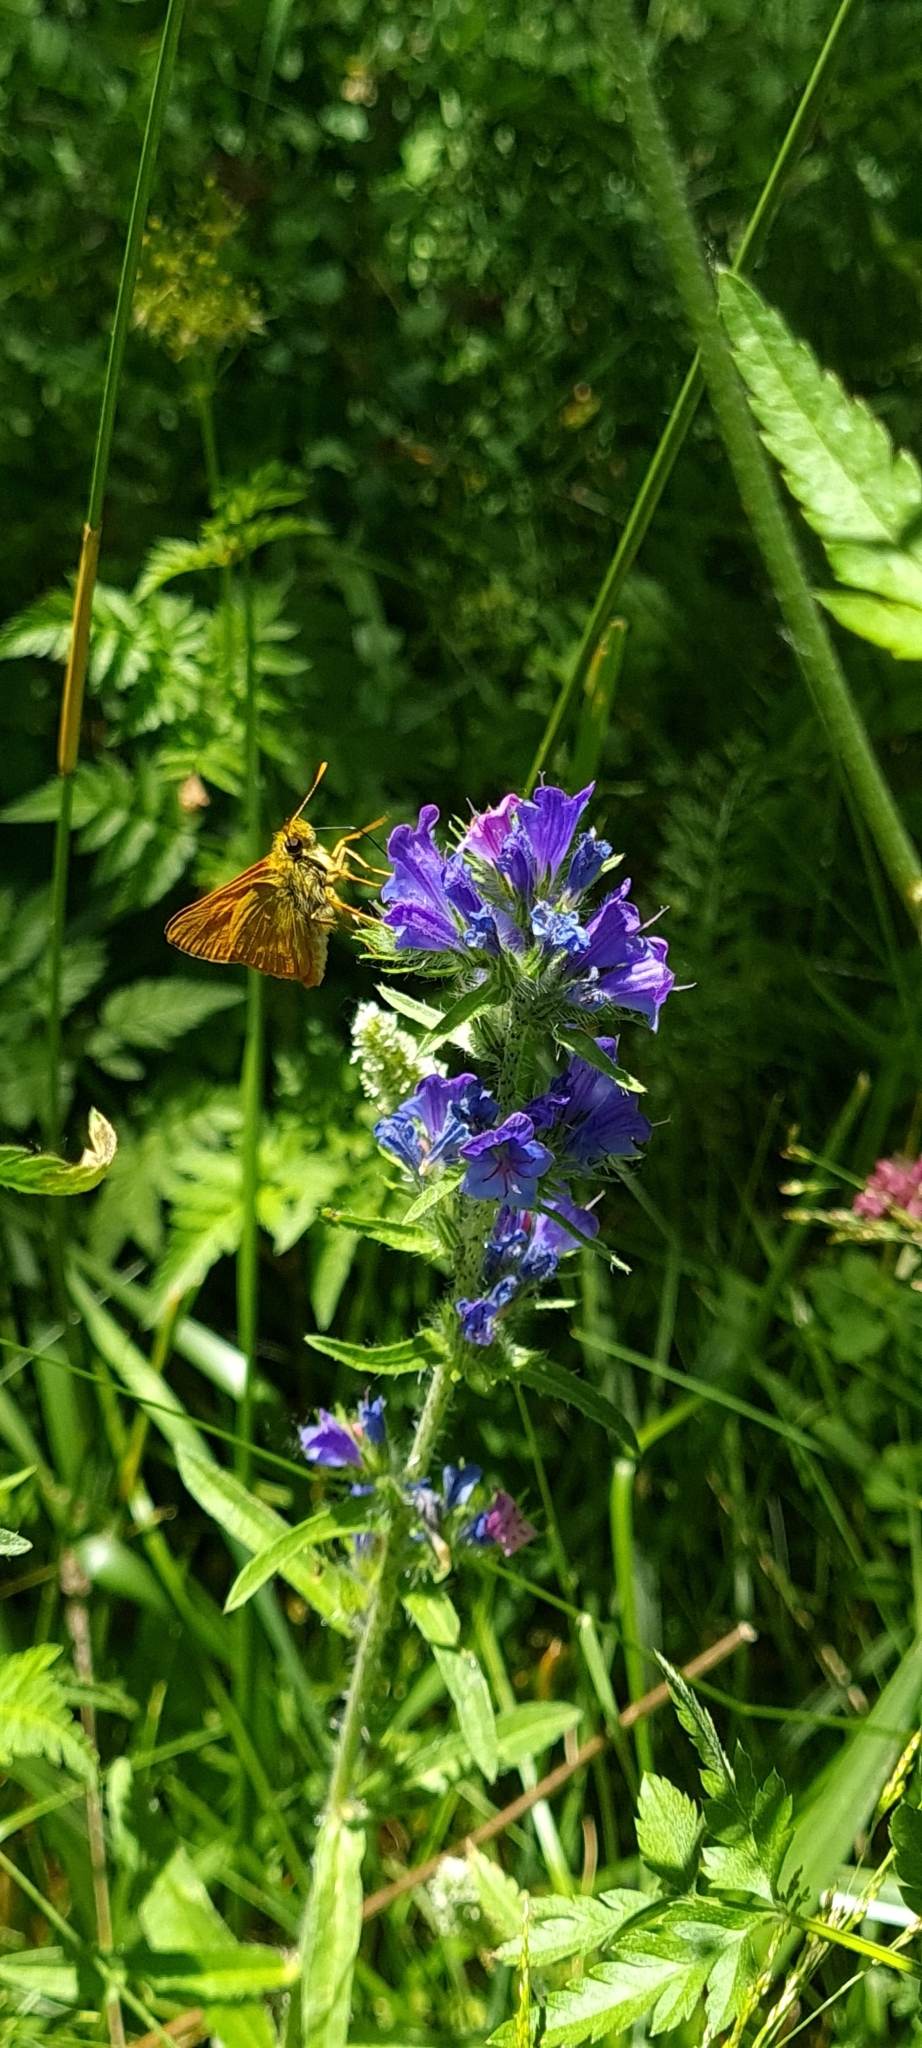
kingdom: Animalia
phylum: Arthropoda
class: Insecta
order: Lepidoptera
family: Hesperiidae
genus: Ochlodes
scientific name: Ochlodes venata
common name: Large skipper
